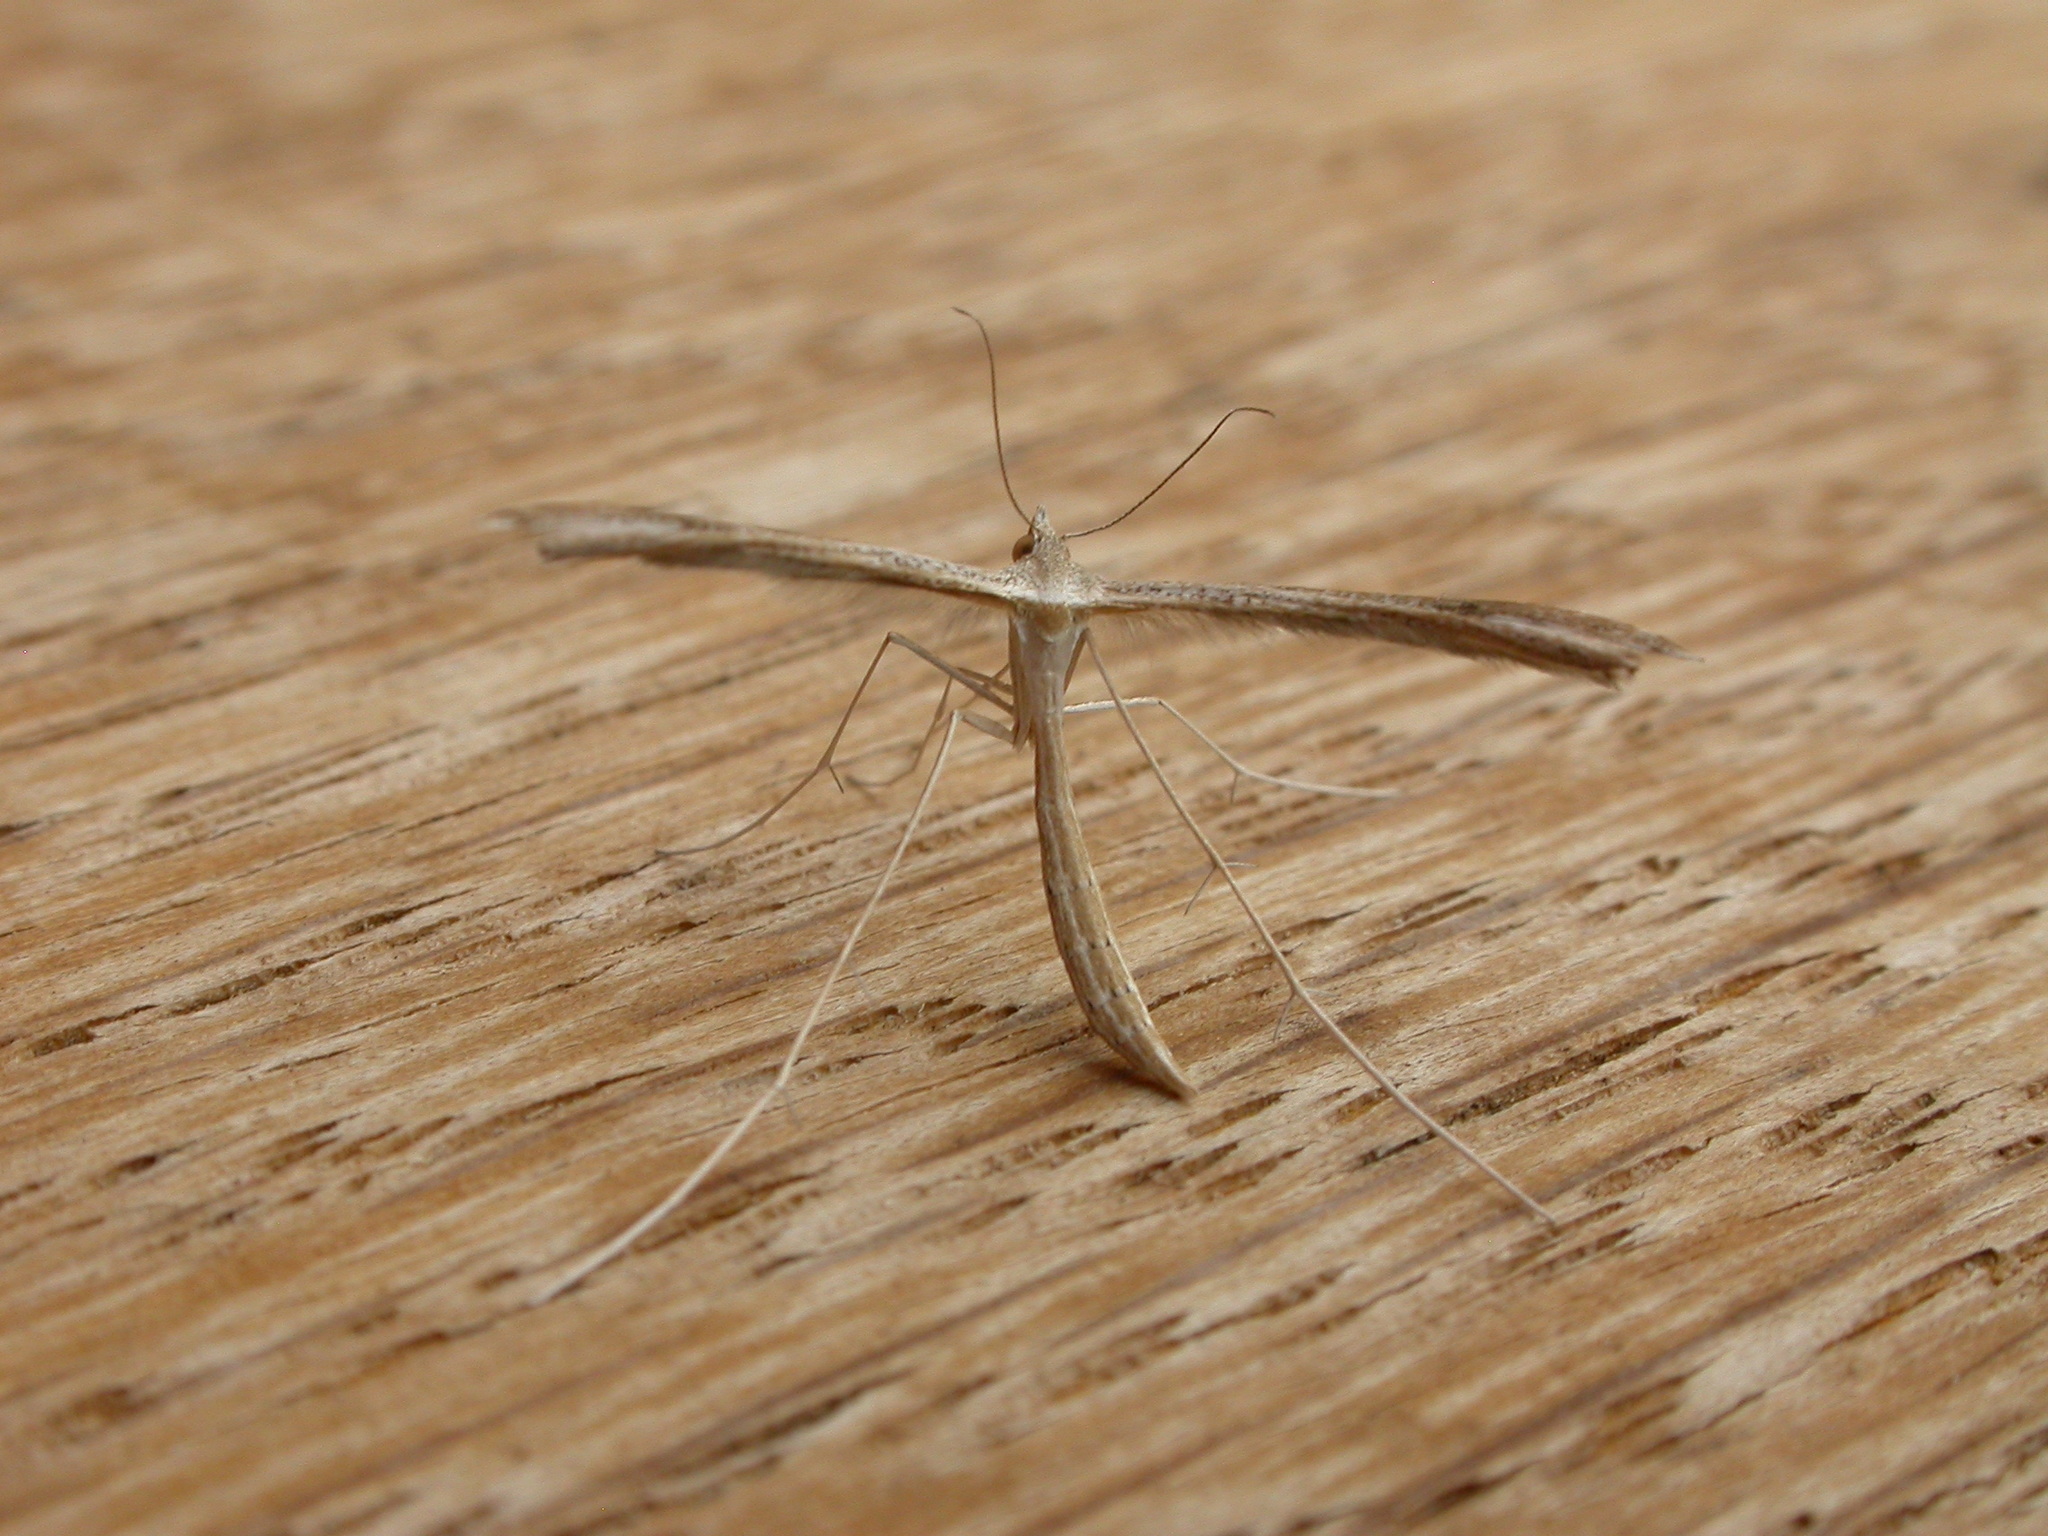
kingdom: Animalia
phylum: Arthropoda
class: Insecta
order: Lepidoptera
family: Pterophoridae
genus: Stenoptilia
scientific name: Stenoptilia zophodactylus
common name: Dowdy plume
